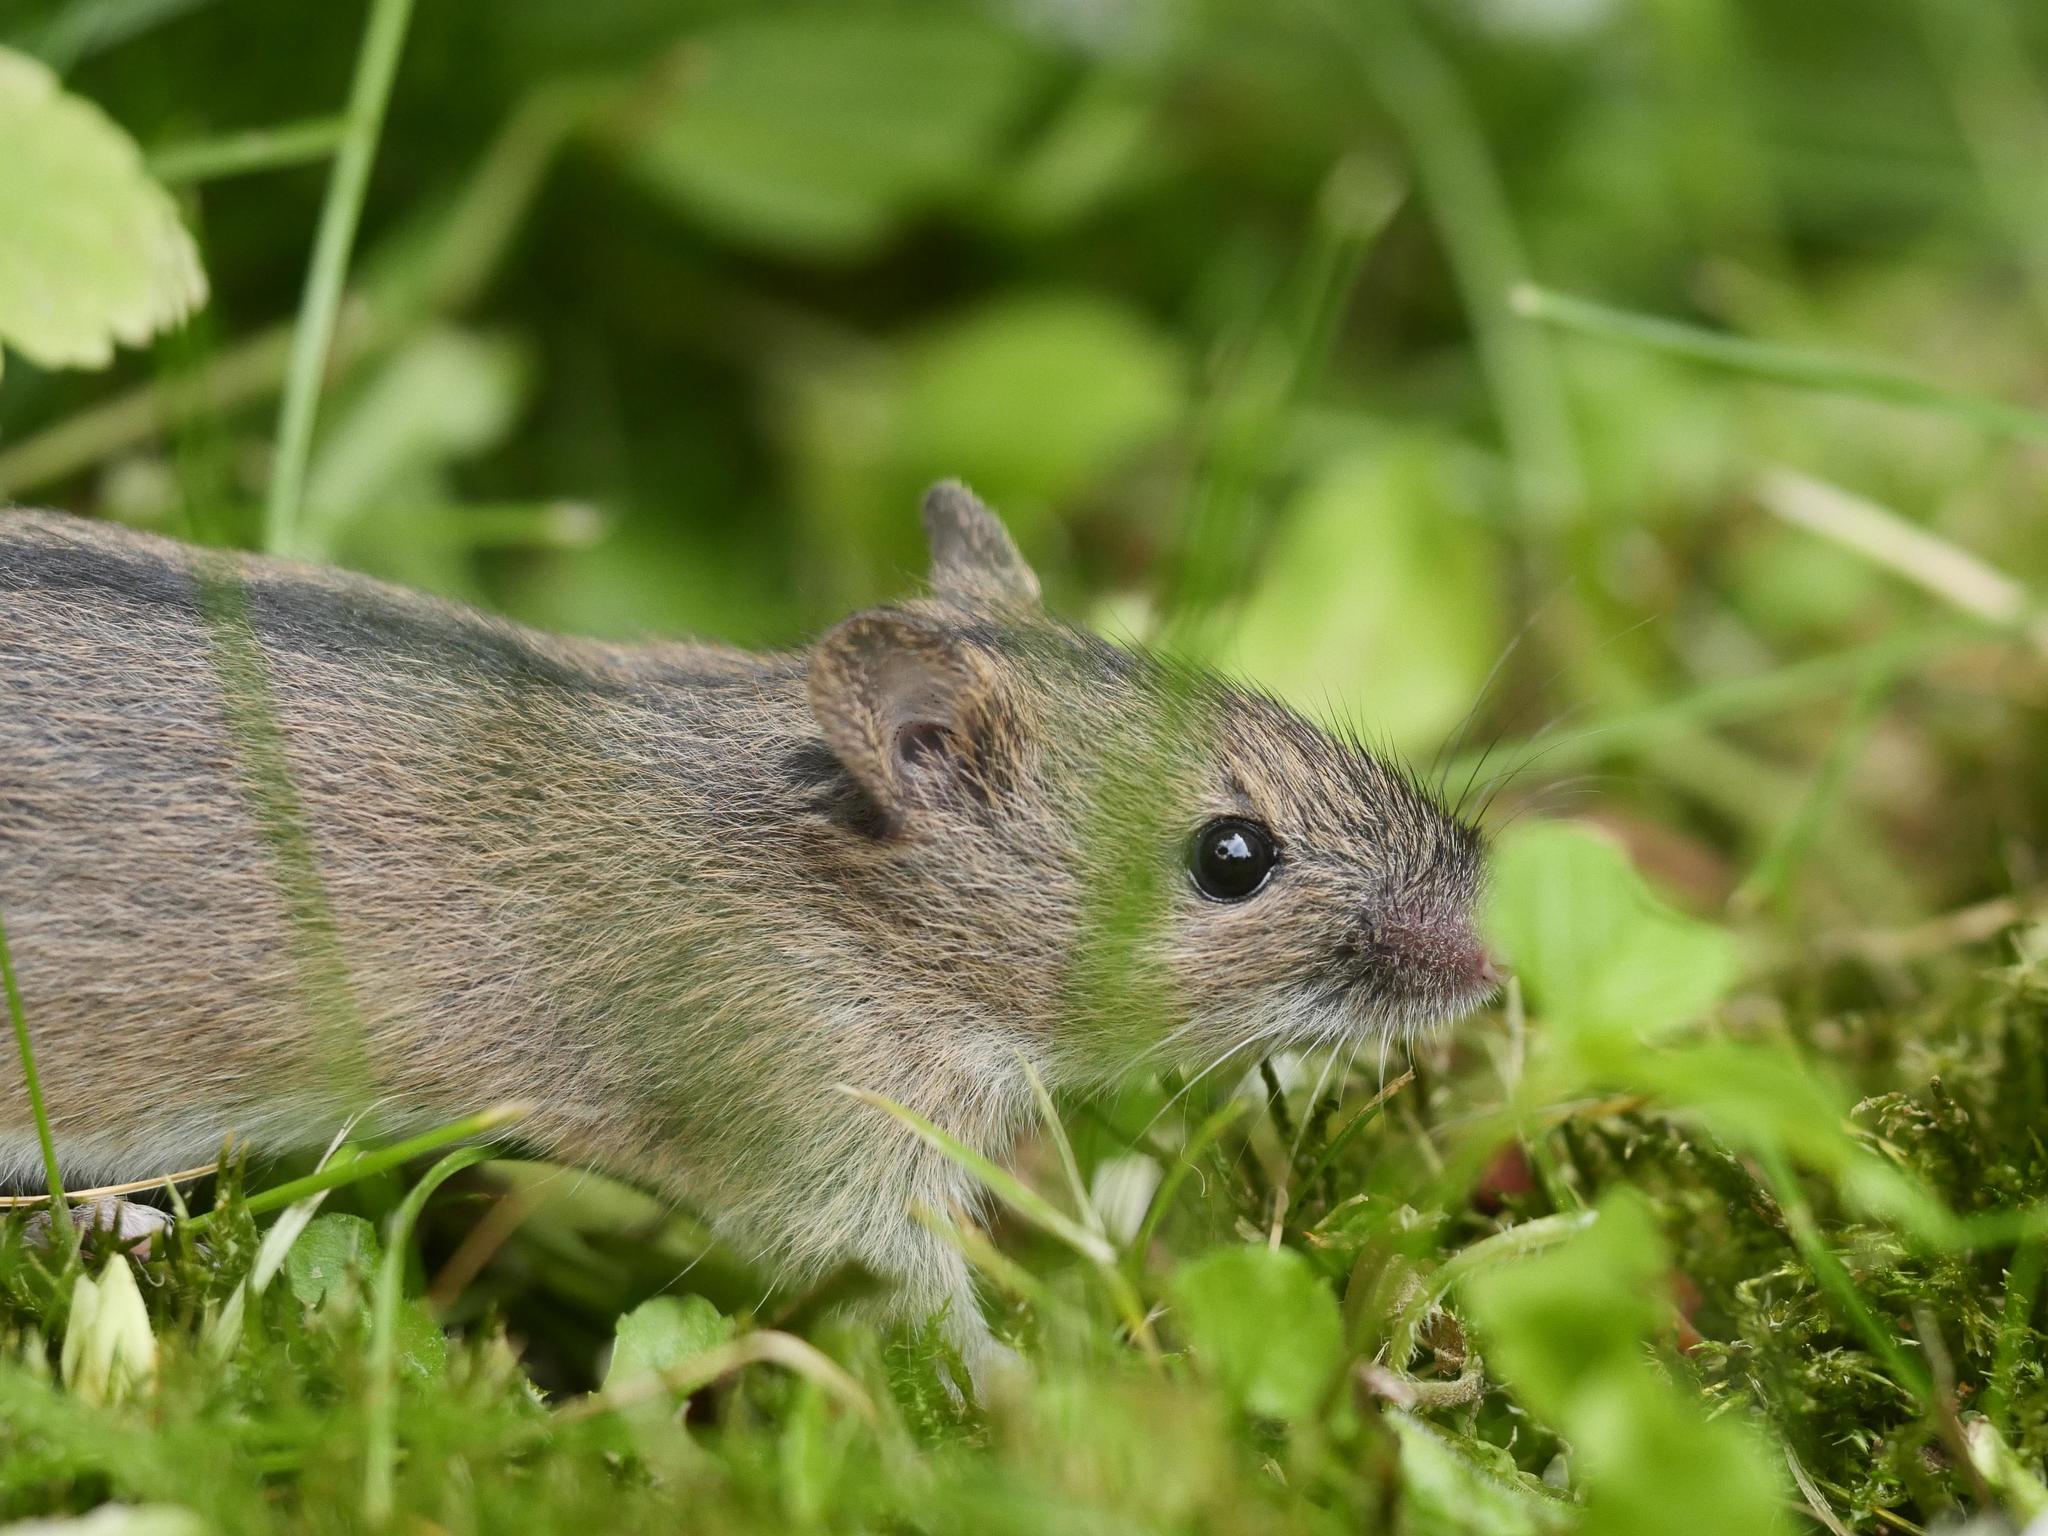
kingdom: Animalia
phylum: Chordata
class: Mammalia
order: Rodentia
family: Muridae
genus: Apodemus
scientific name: Apodemus agrarius
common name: Striped field mouse
